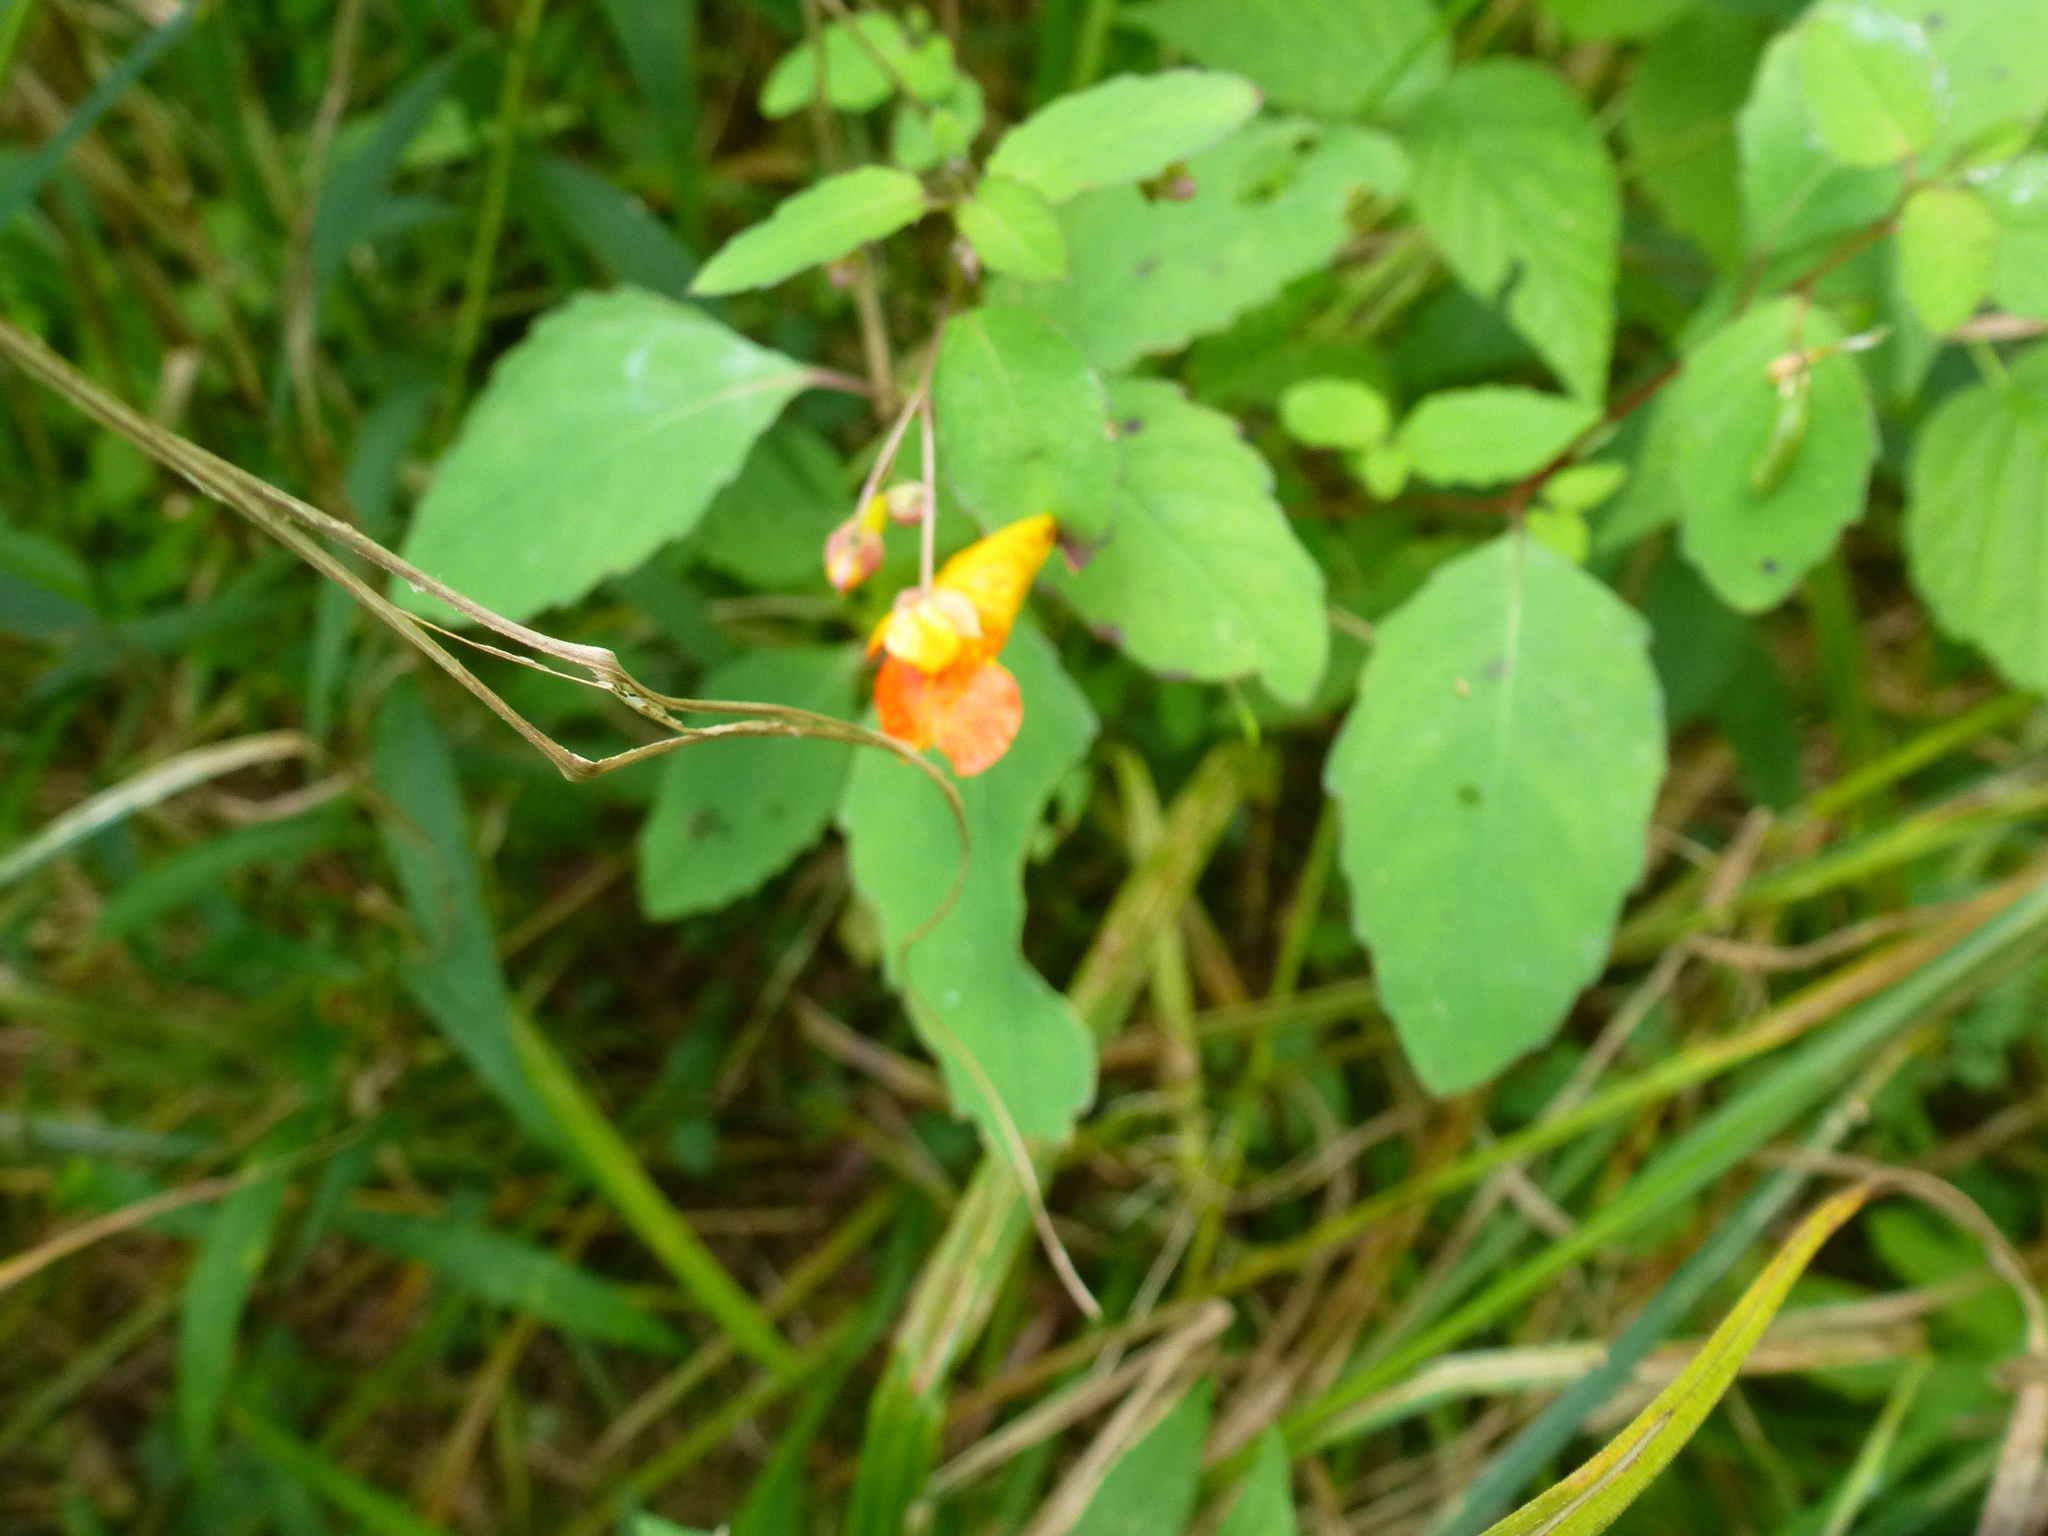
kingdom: Plantae
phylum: Tracheophyta
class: Magnoliopsida
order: Ericales
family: Balsaminaceae
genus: Impatiens
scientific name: Impatiens capensis
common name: Orange balsam
